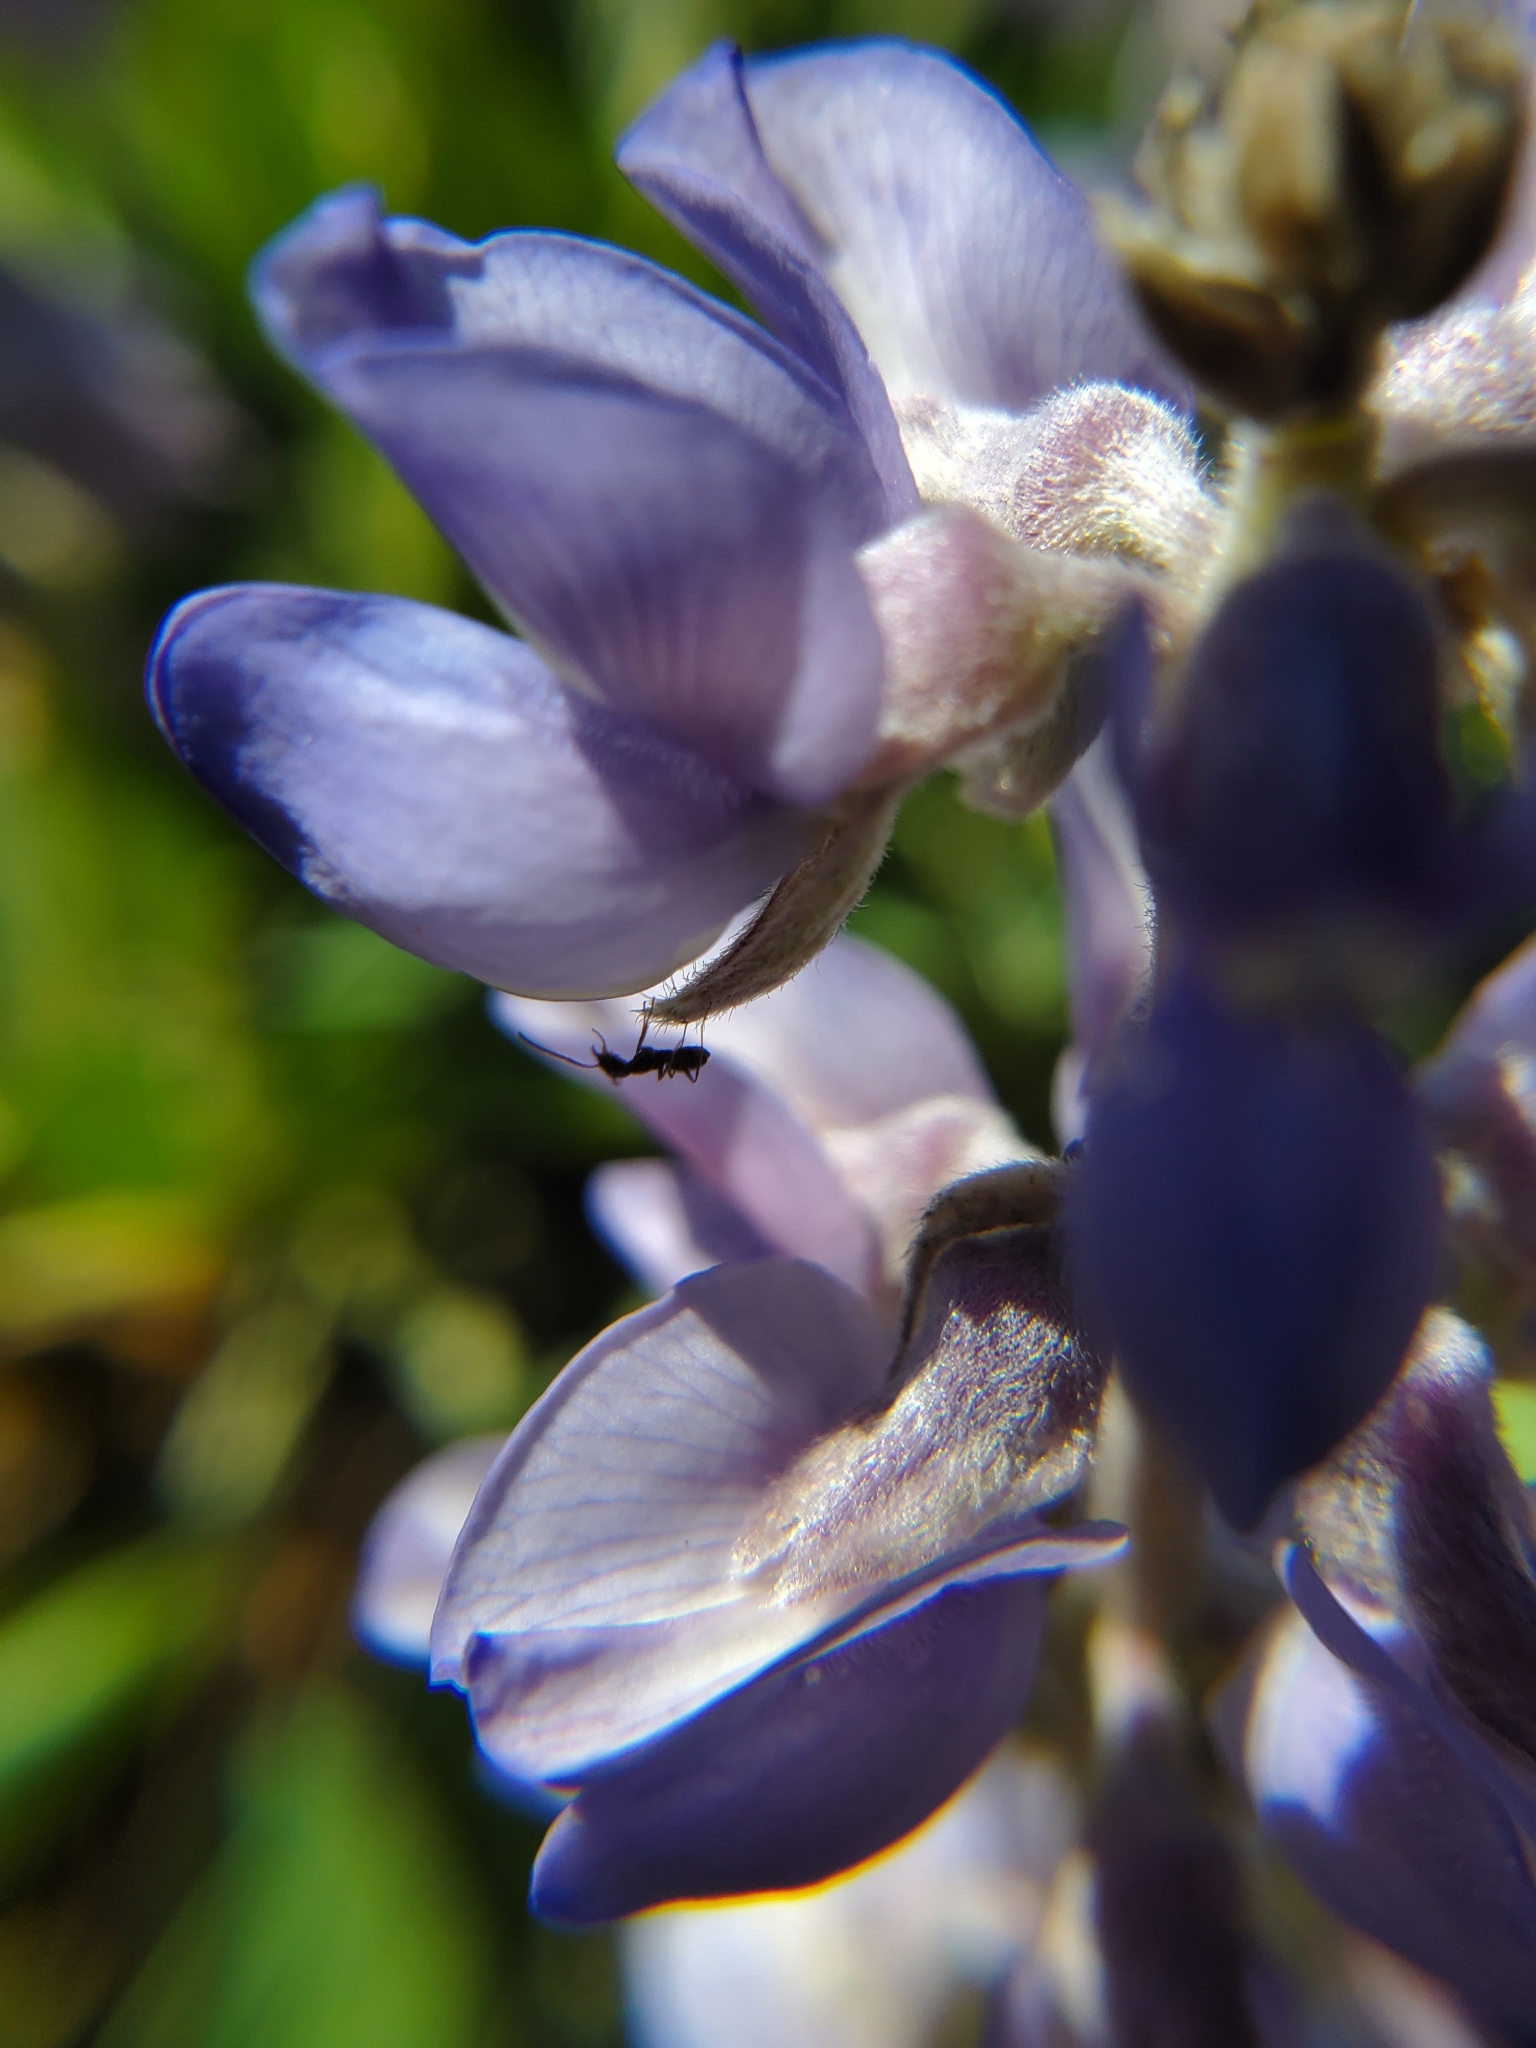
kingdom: Plantae
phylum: Tracheophyta
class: Magnoliopsida
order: Fabales
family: Fabaceae
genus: Lupinus
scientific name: Lupinus
